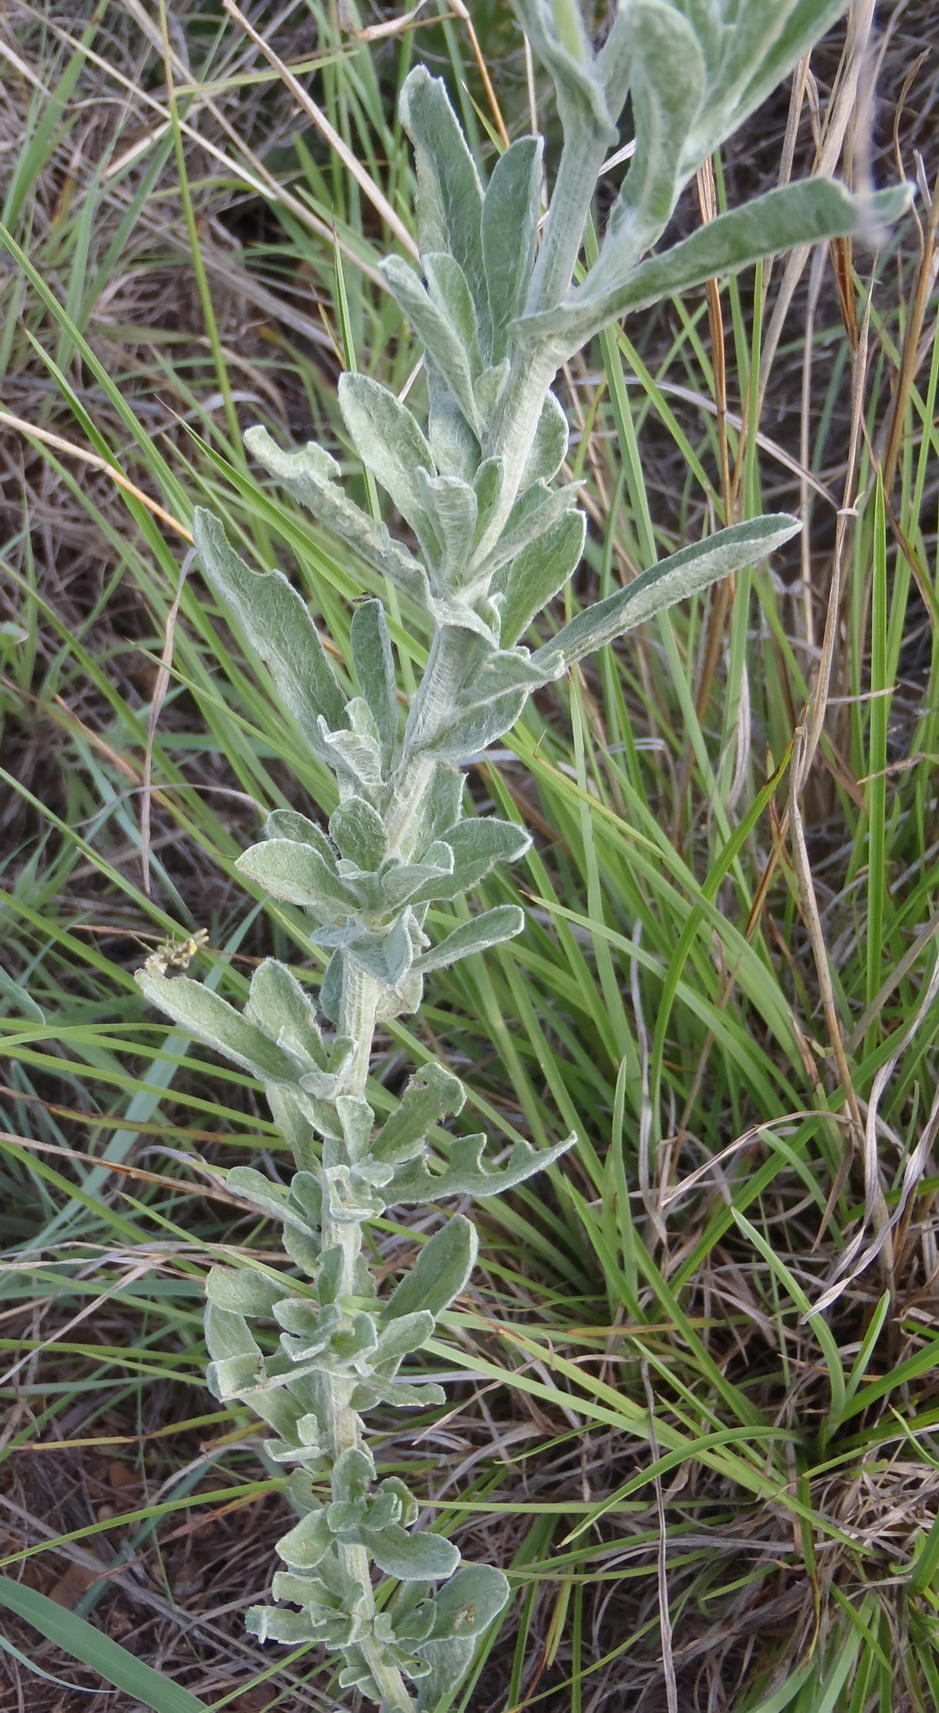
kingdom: Plantae
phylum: Tracheophyta
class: Magnoliopsida
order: Asterales
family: Asteraceae
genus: Nidorella
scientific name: Nidorella hottentotica
